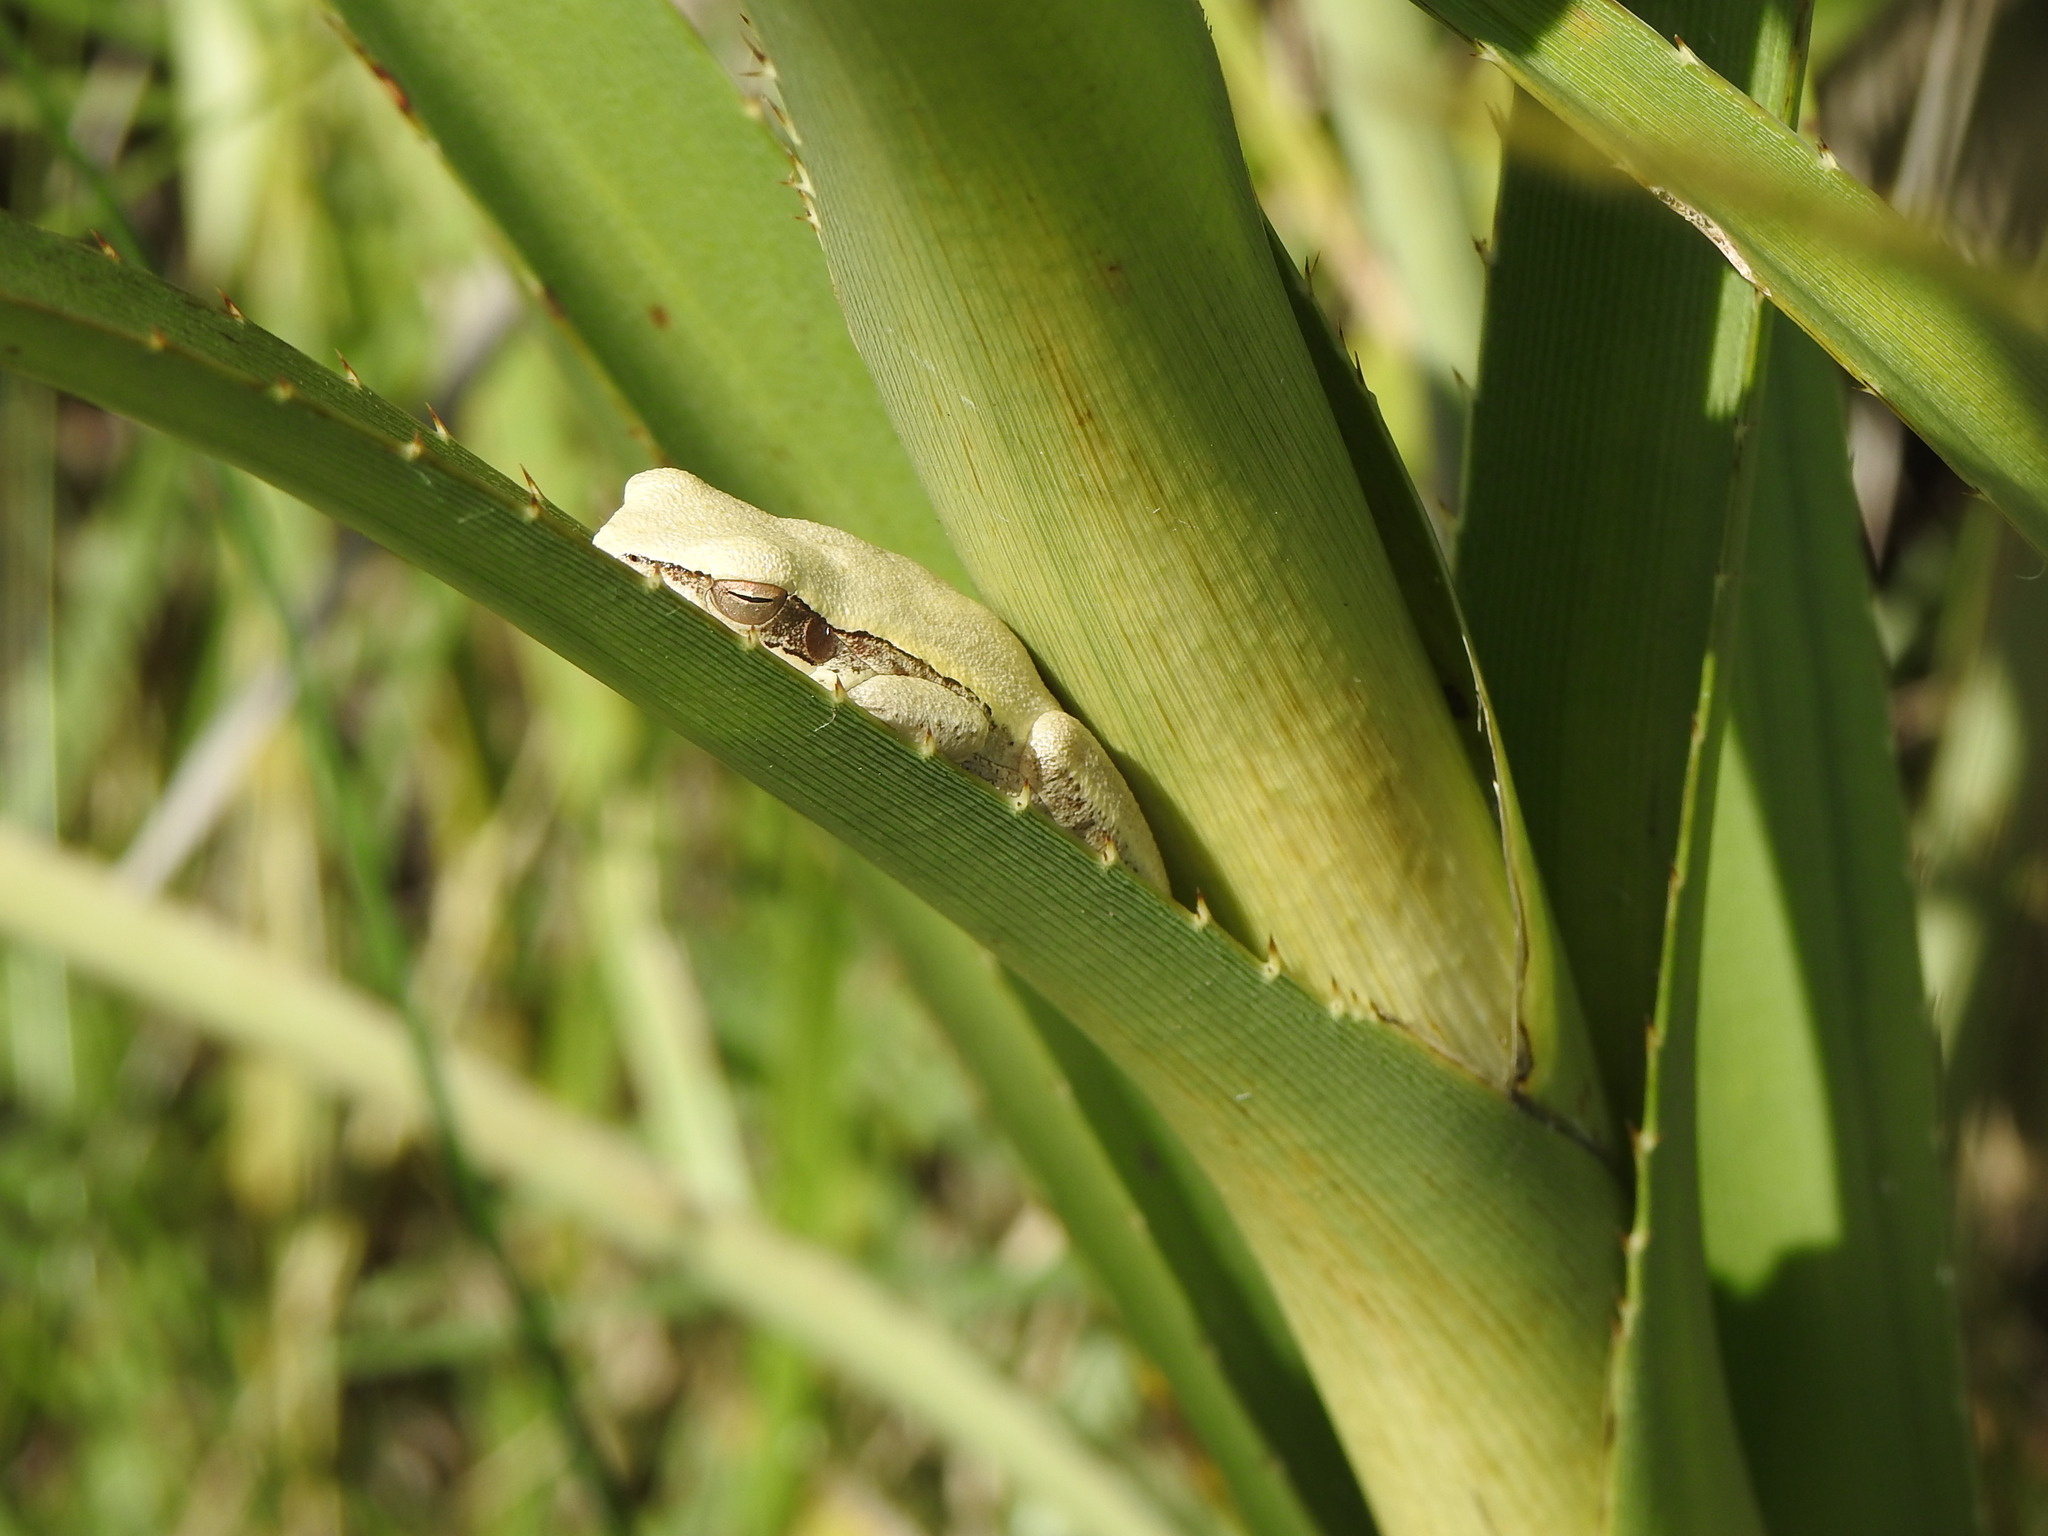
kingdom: Animalia
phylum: Chordata
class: Amphibia
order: Anura
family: Hylidae
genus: Boana
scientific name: Boana pulchella
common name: Montevideo treefrog
